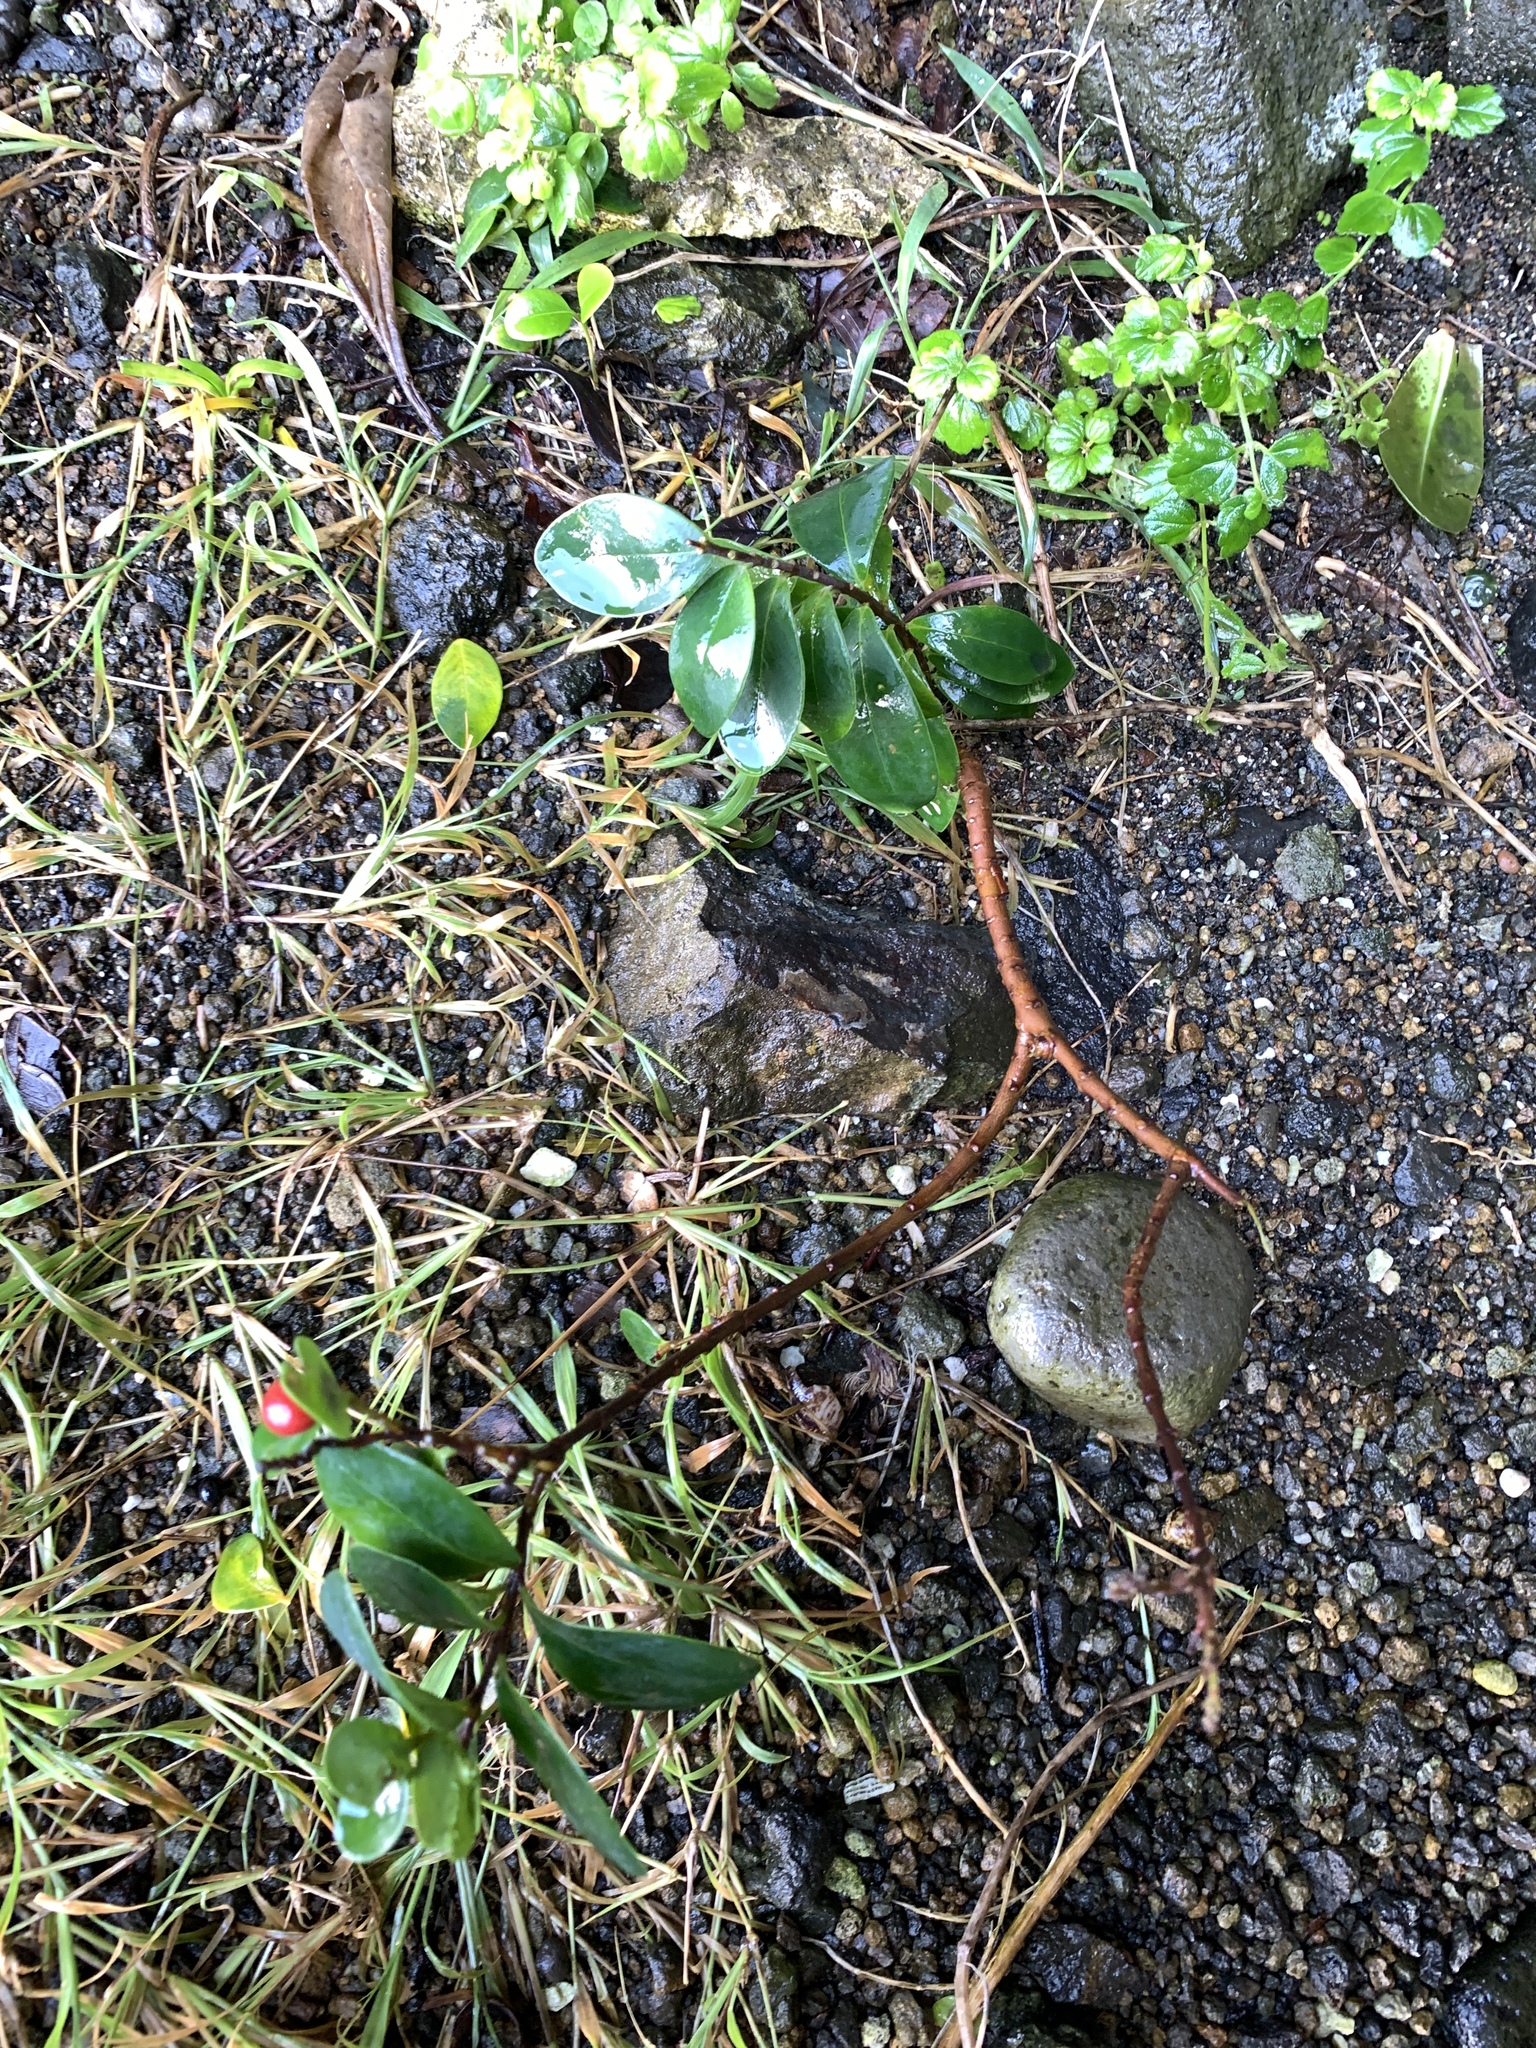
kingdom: Plantae
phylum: Tracheophyta
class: Magnoliopsida
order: Malvales
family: Thymelaeaceae
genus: Wikstroemia
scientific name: Wikstroemia indica
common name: Tiebush
